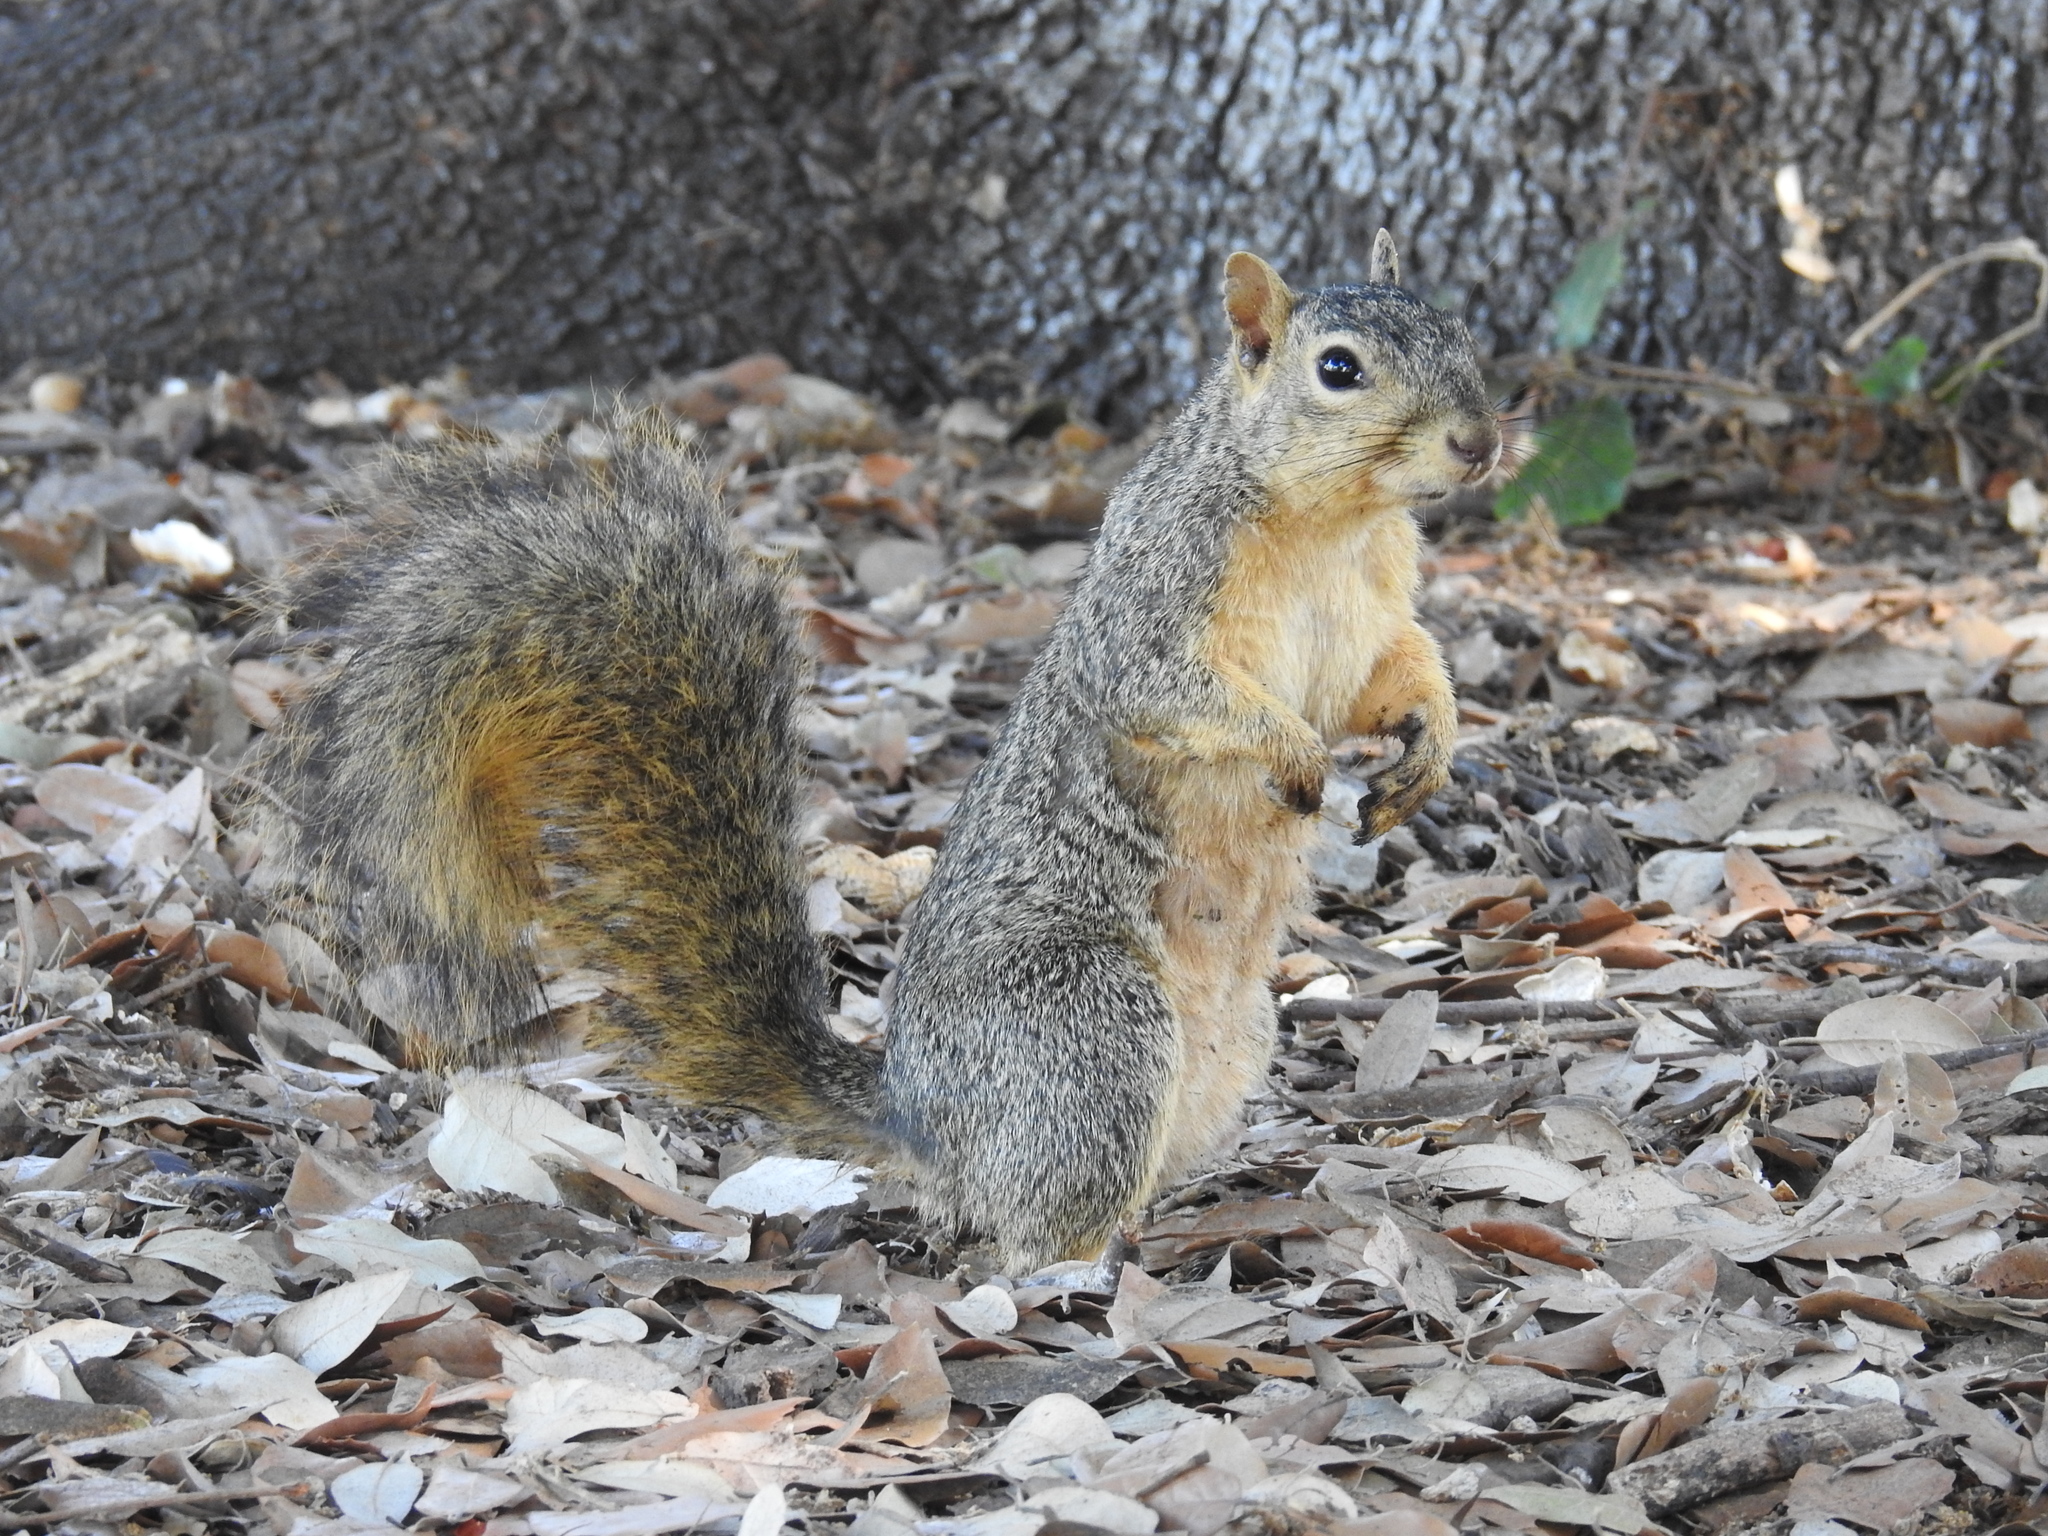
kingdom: Animalia
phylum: Chordata
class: Mammalia
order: Rodentia
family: Sciuridae
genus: Sciurus
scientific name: Sciurus niger
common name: Fox squirrel
